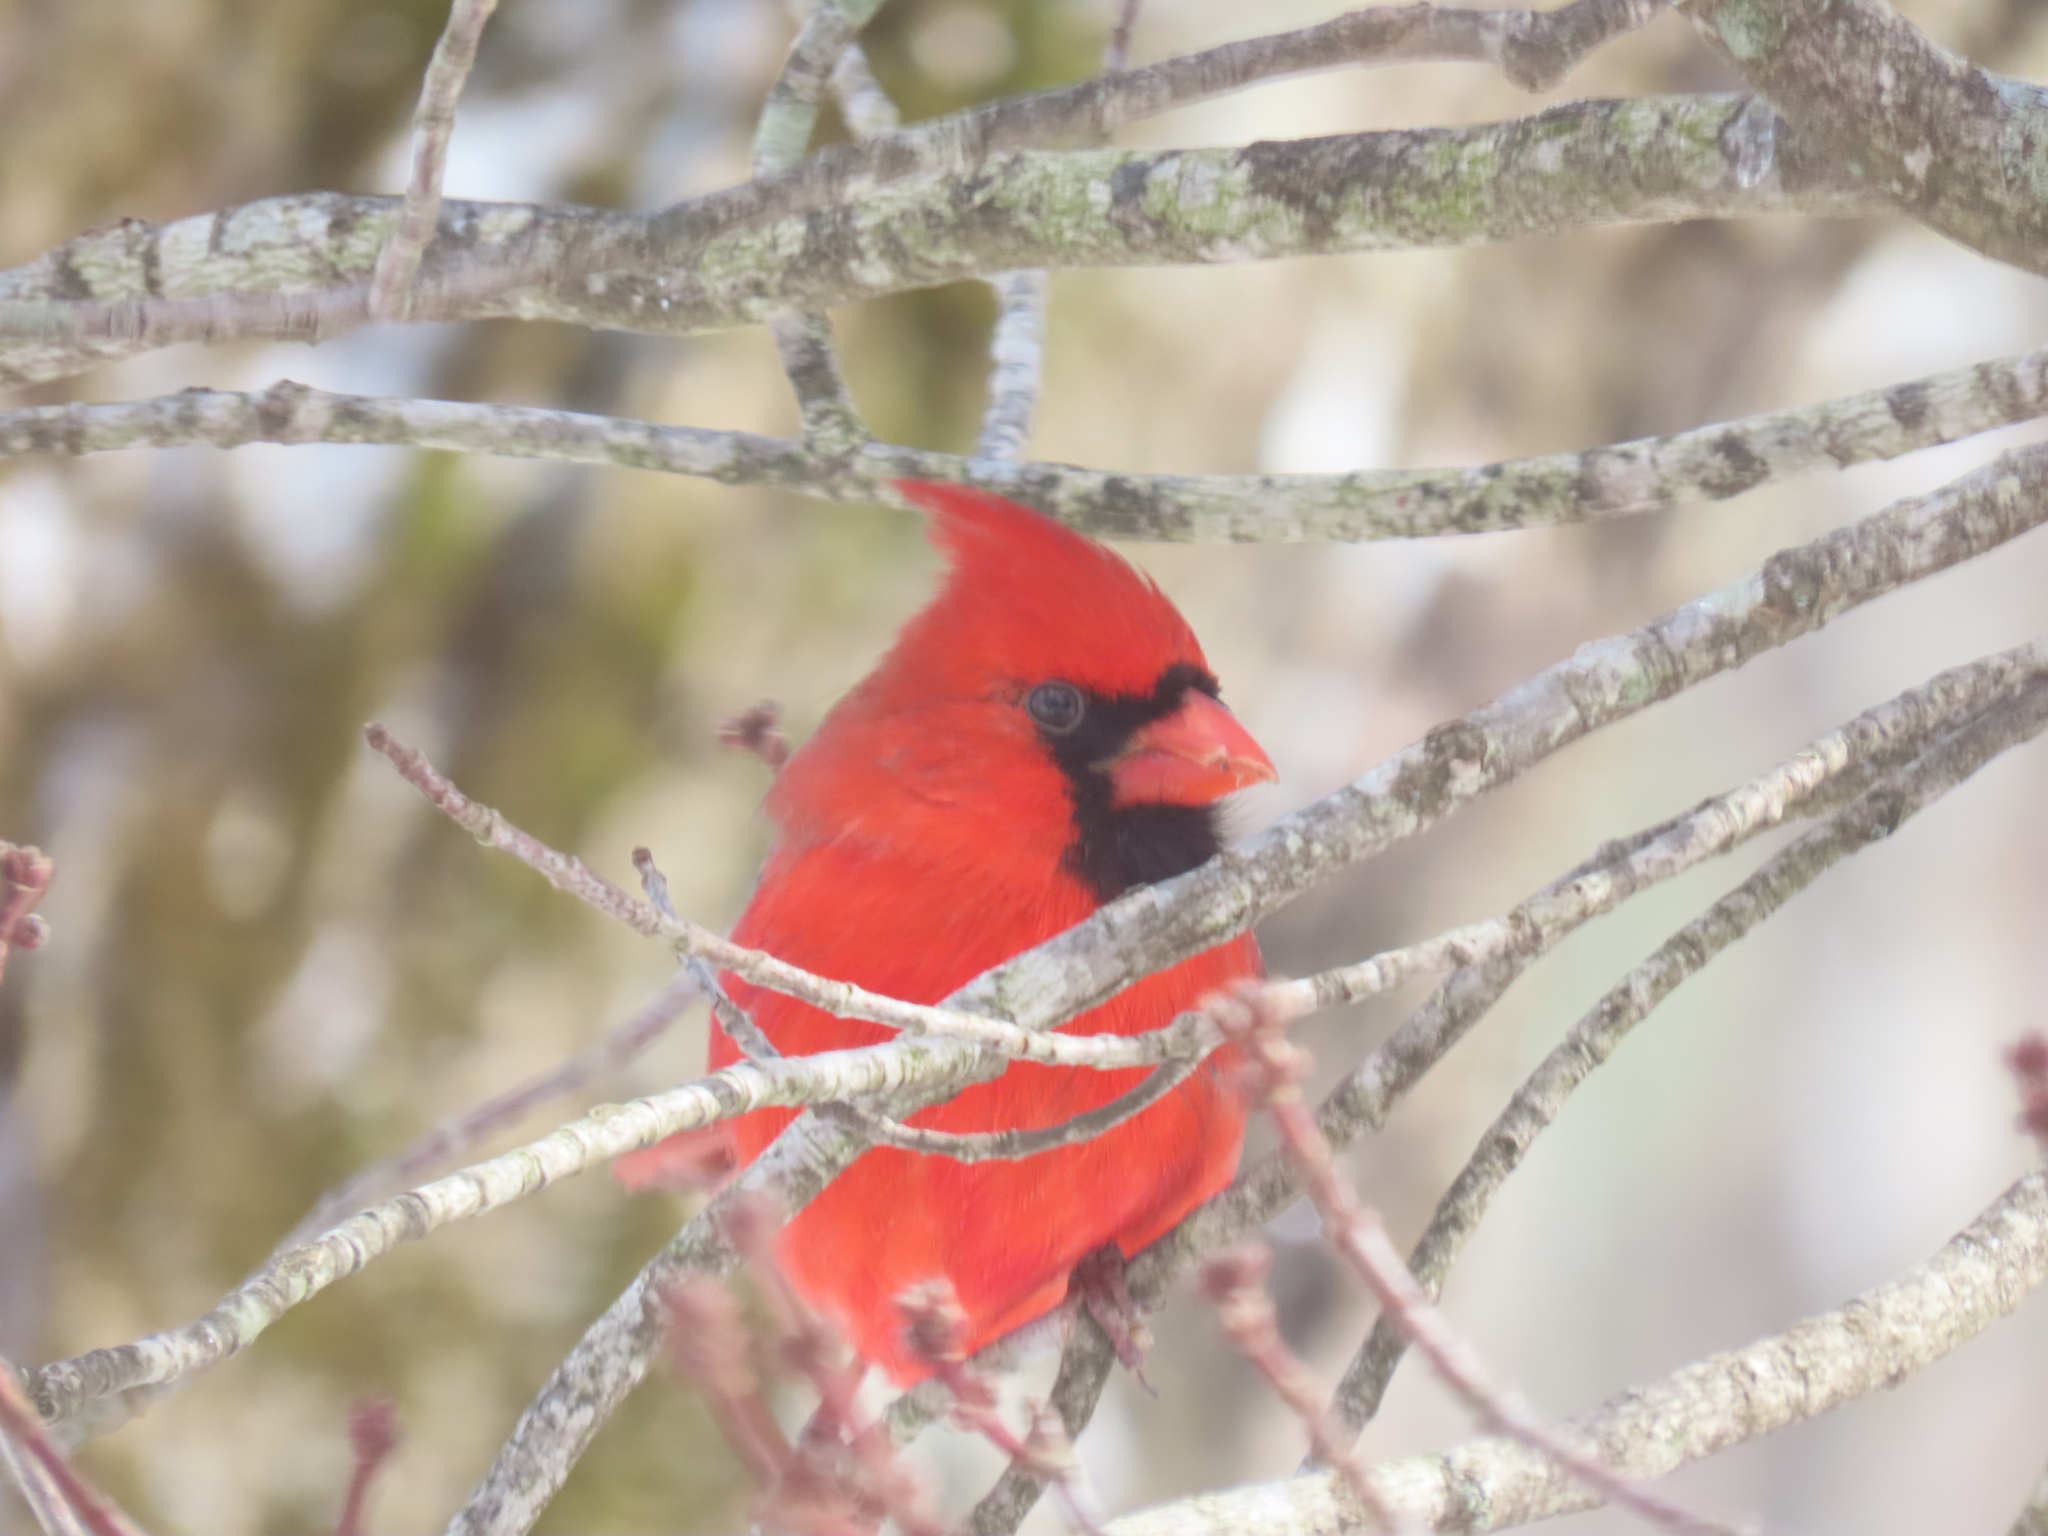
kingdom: Animalia
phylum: Chordata
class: Aves
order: Passeriformes
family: Cardinalidae
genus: Cardinalis
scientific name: Cardinalis cardinalis
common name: Northern cardinal
